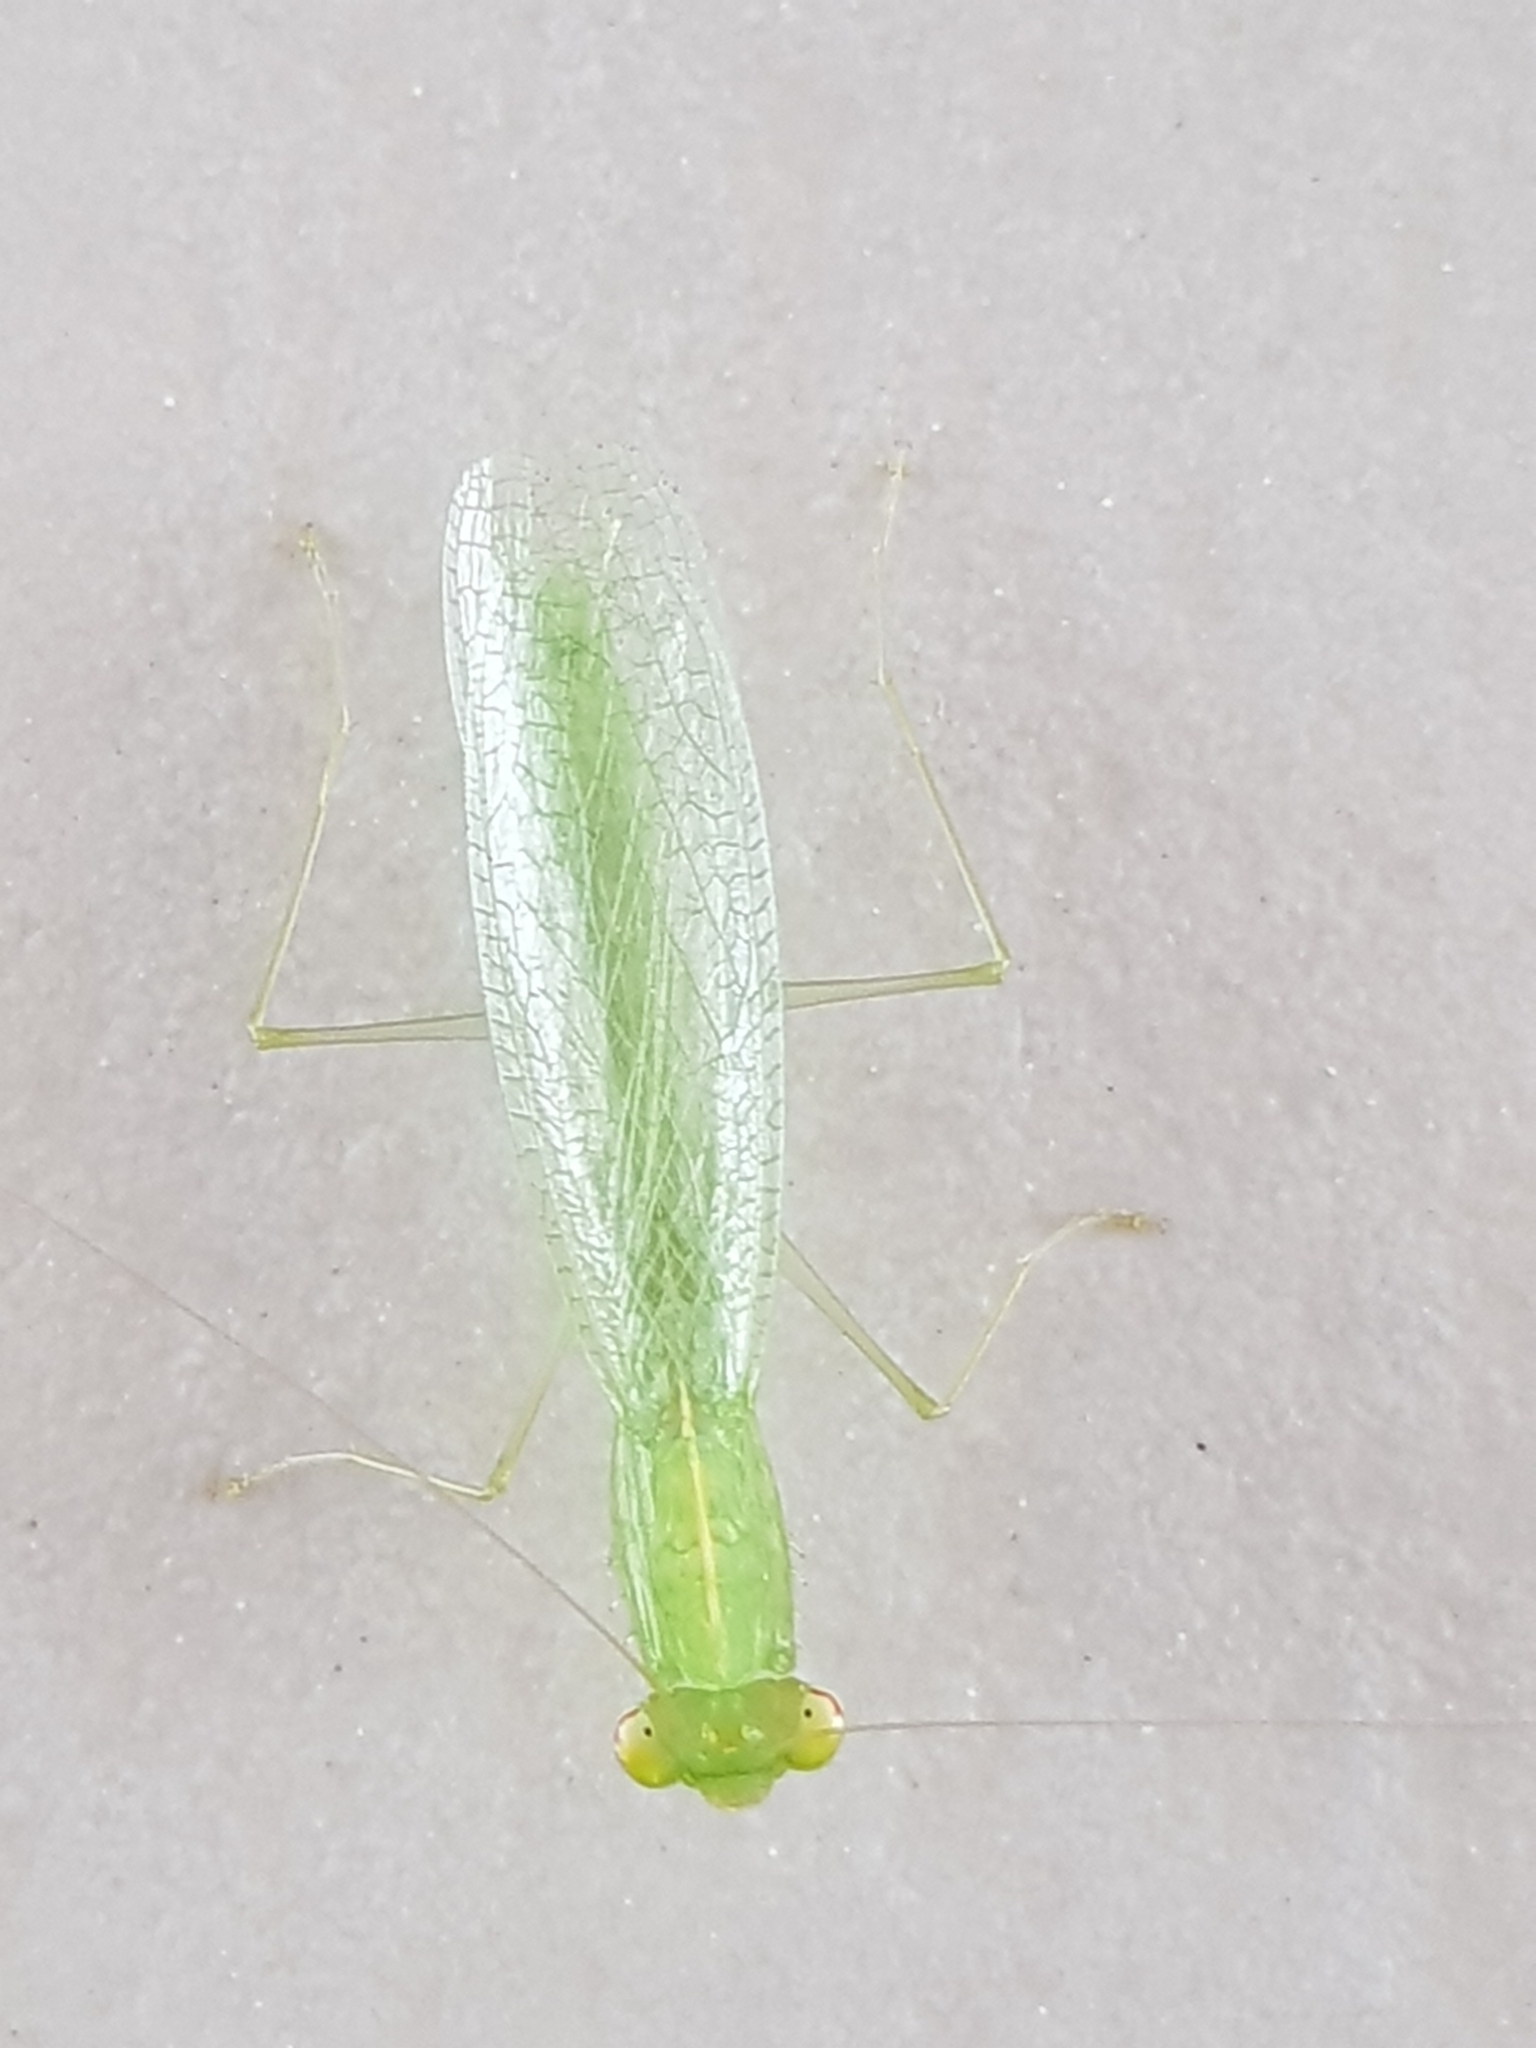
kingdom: Animalia
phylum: Arthropoda
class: Insecta
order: Mantodea
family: Nanomantidae
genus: Tropidomantis
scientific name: Tropidomantis tenera
